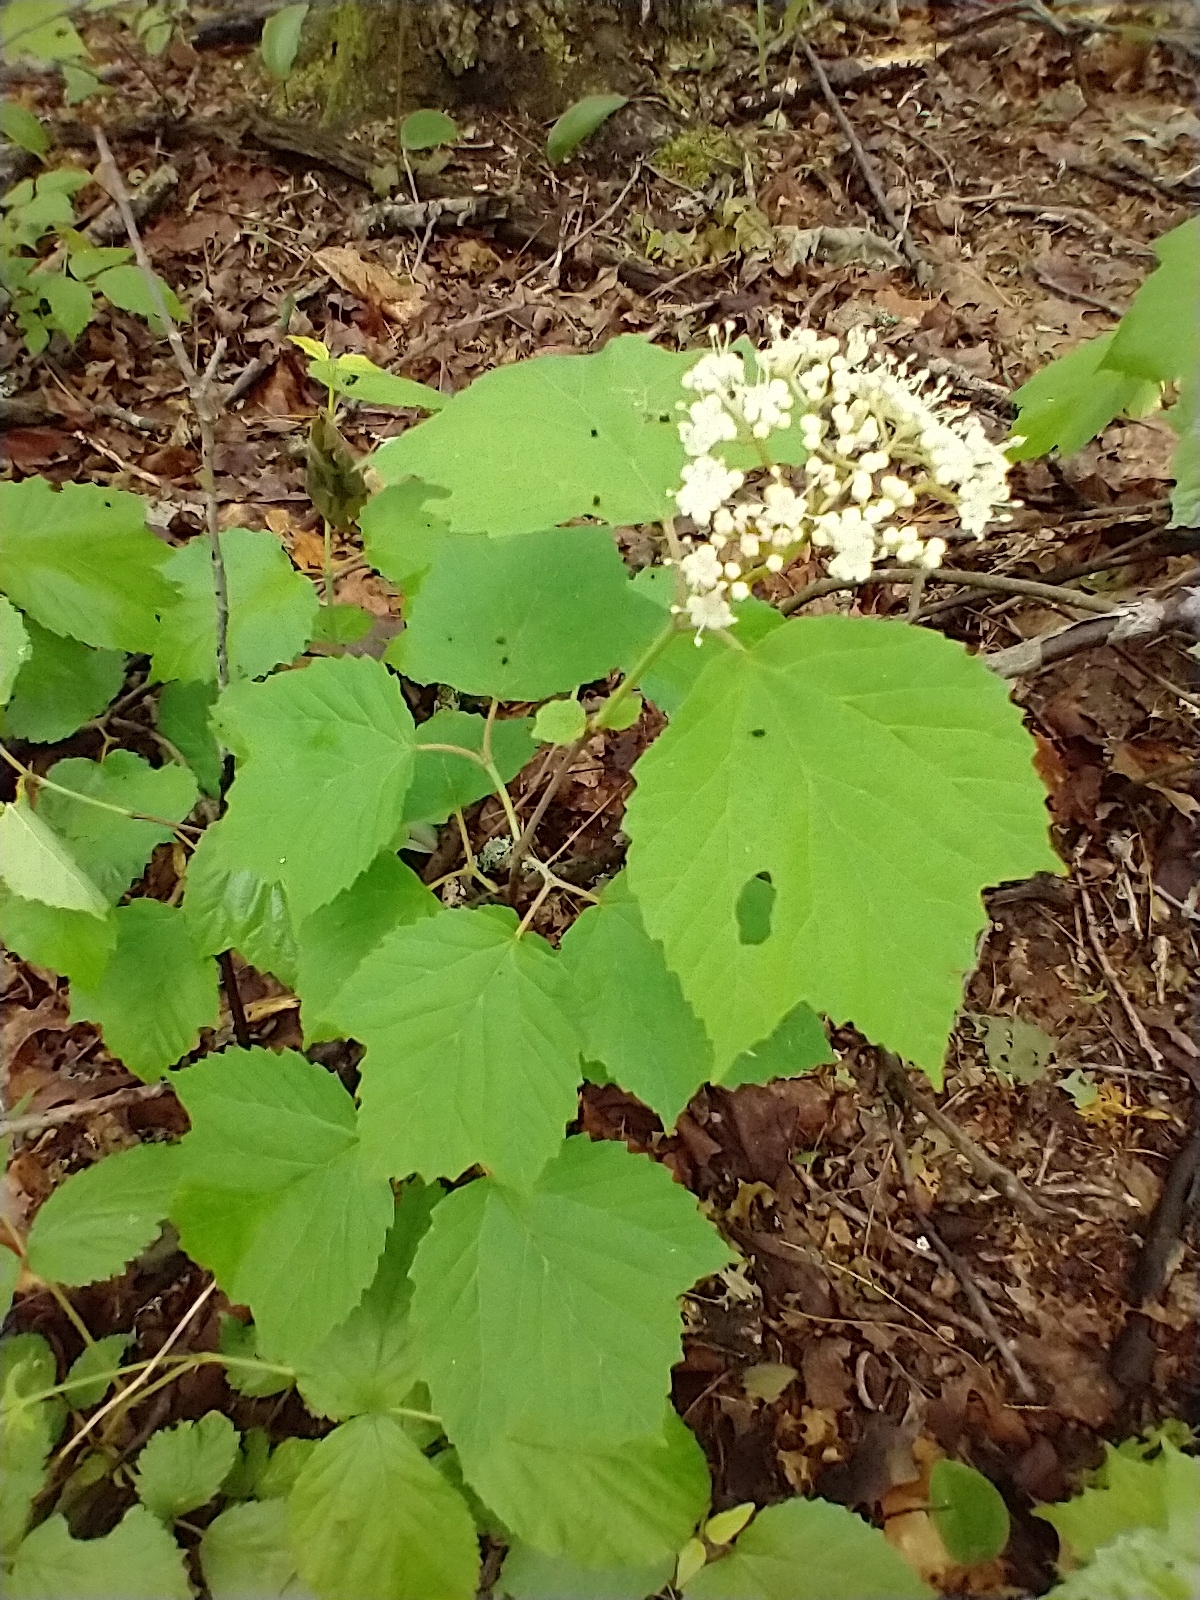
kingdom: Plantae
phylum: Tracheophyta
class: Magnoliopsida
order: Dipsacales
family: Viburnaceae
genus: Viburnum
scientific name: Viburnum acerifolium
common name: Dockmackie
